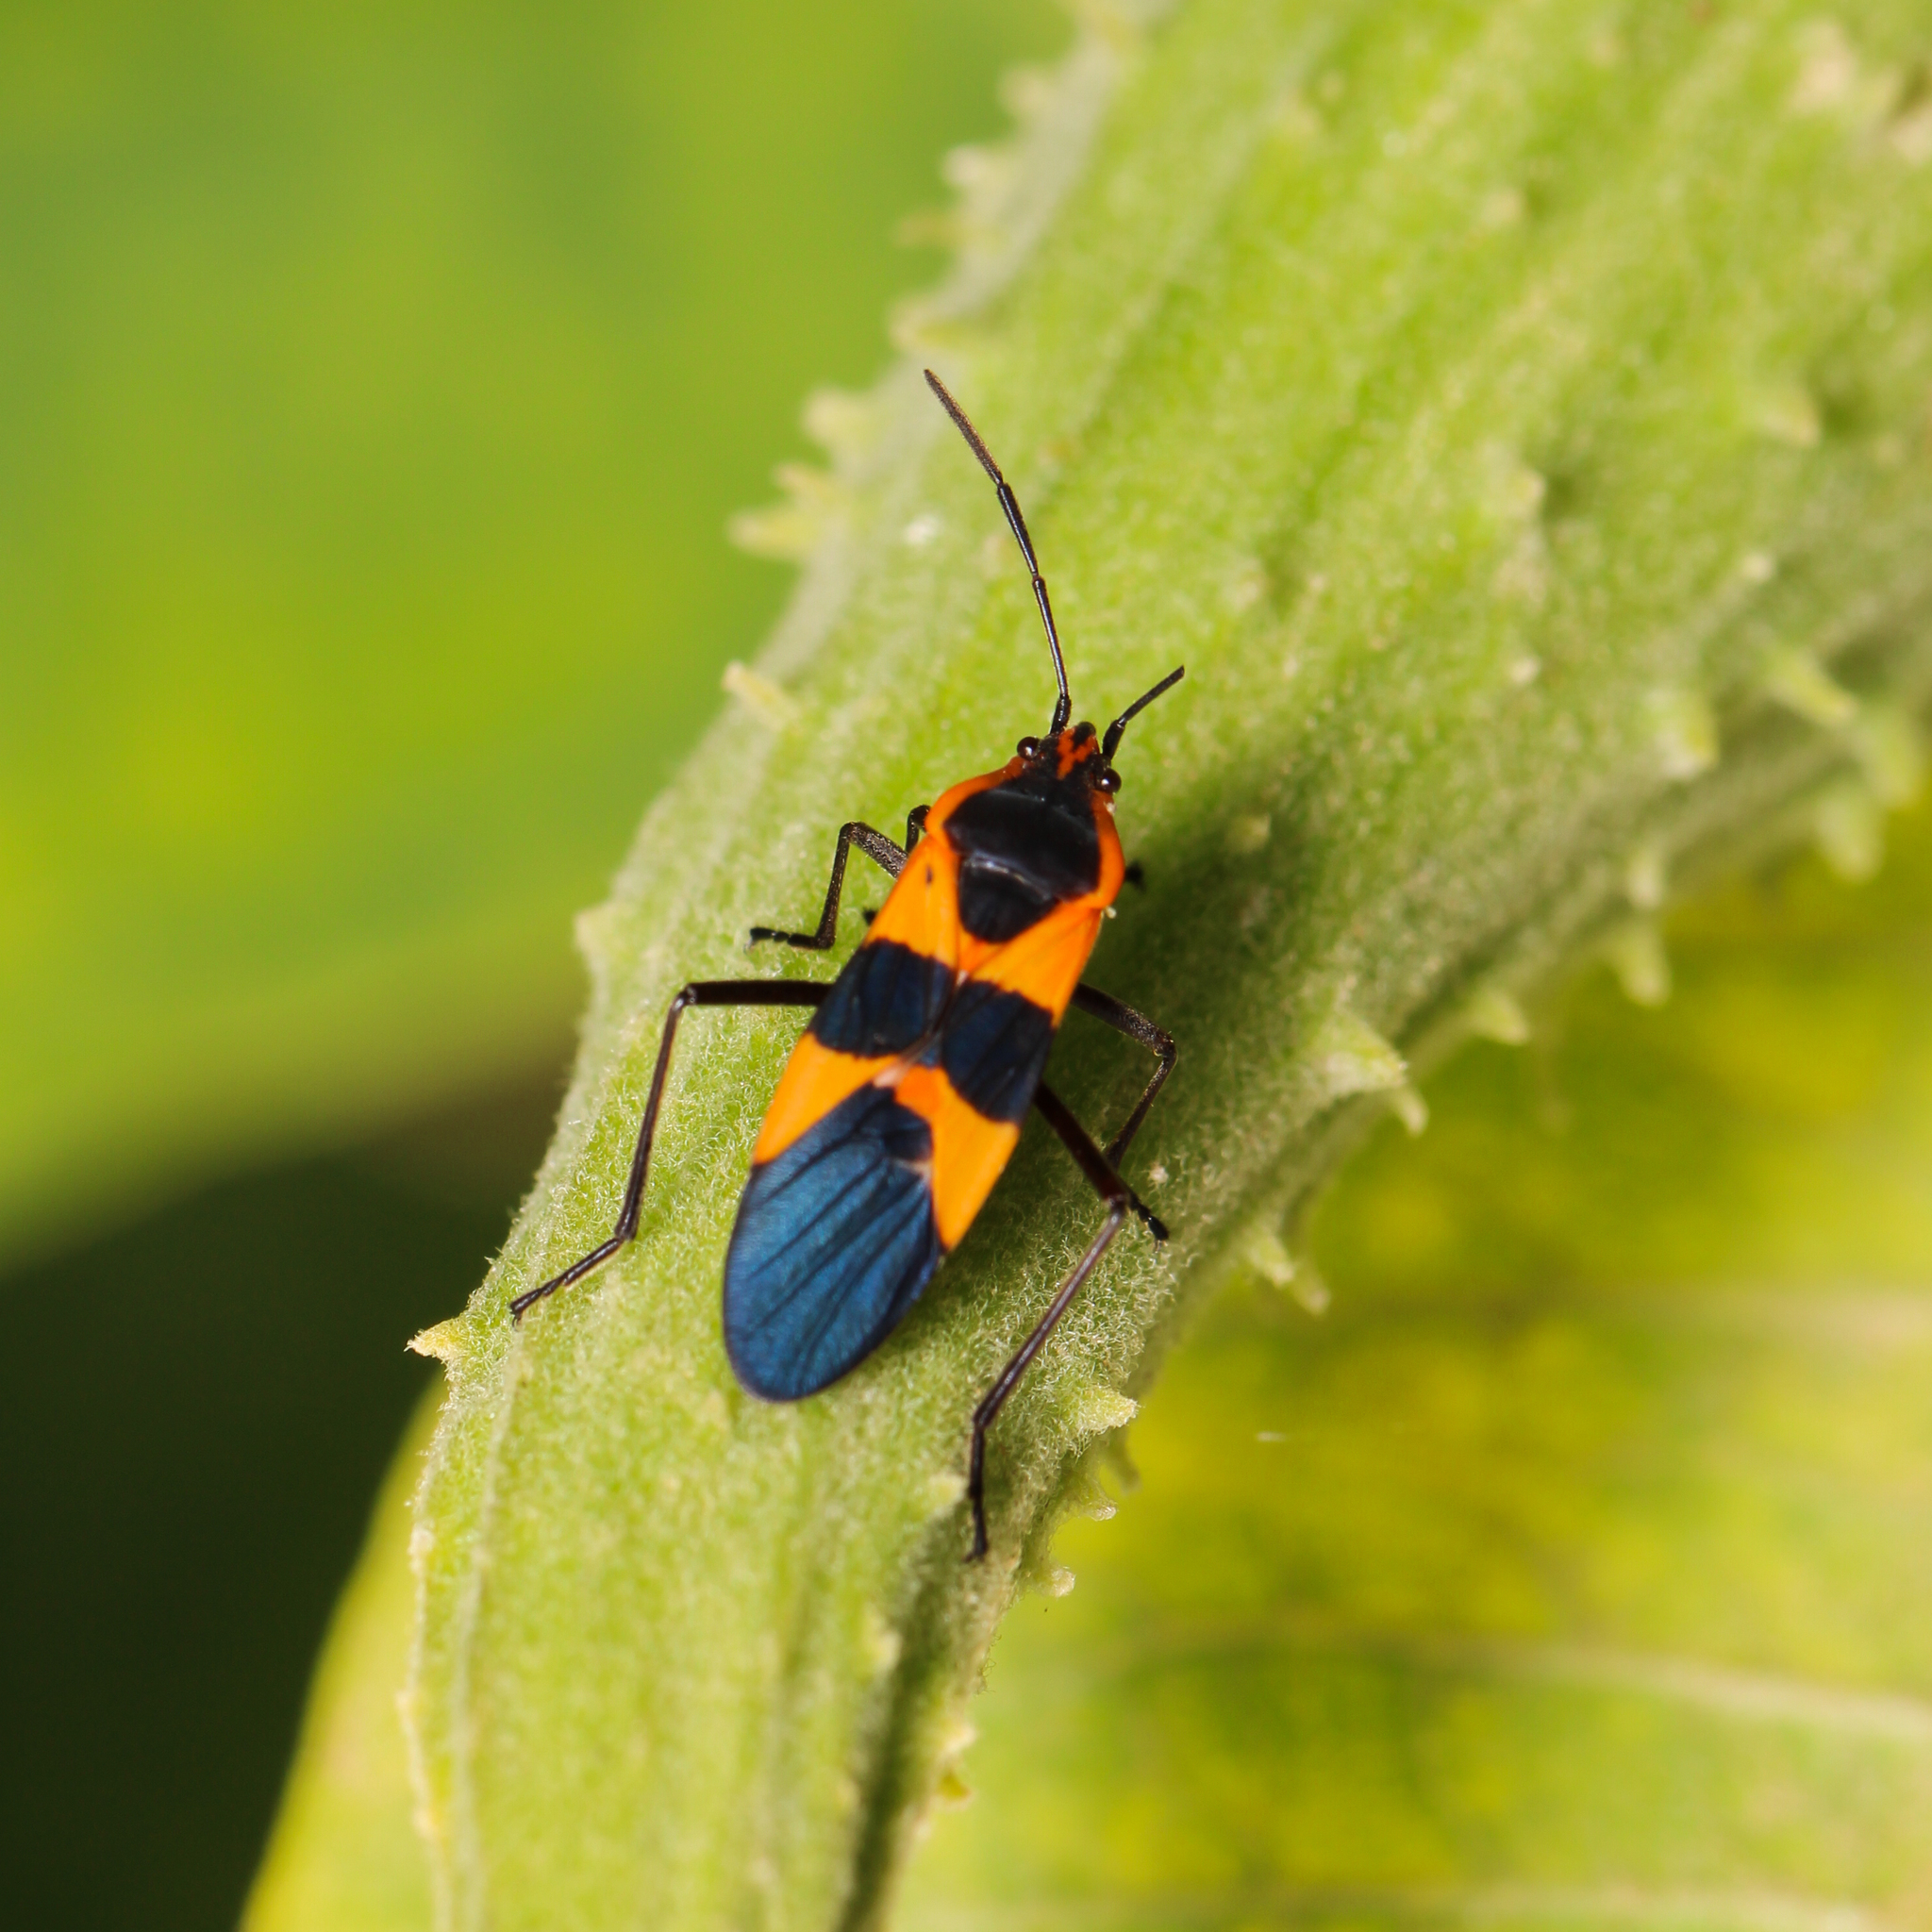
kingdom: Animalia
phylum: Arthropoda
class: Insecta
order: Hemiptera
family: Lygaeidae
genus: Oncopeltus
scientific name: Oncopeltus fasciatus
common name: Large milkweed bug
